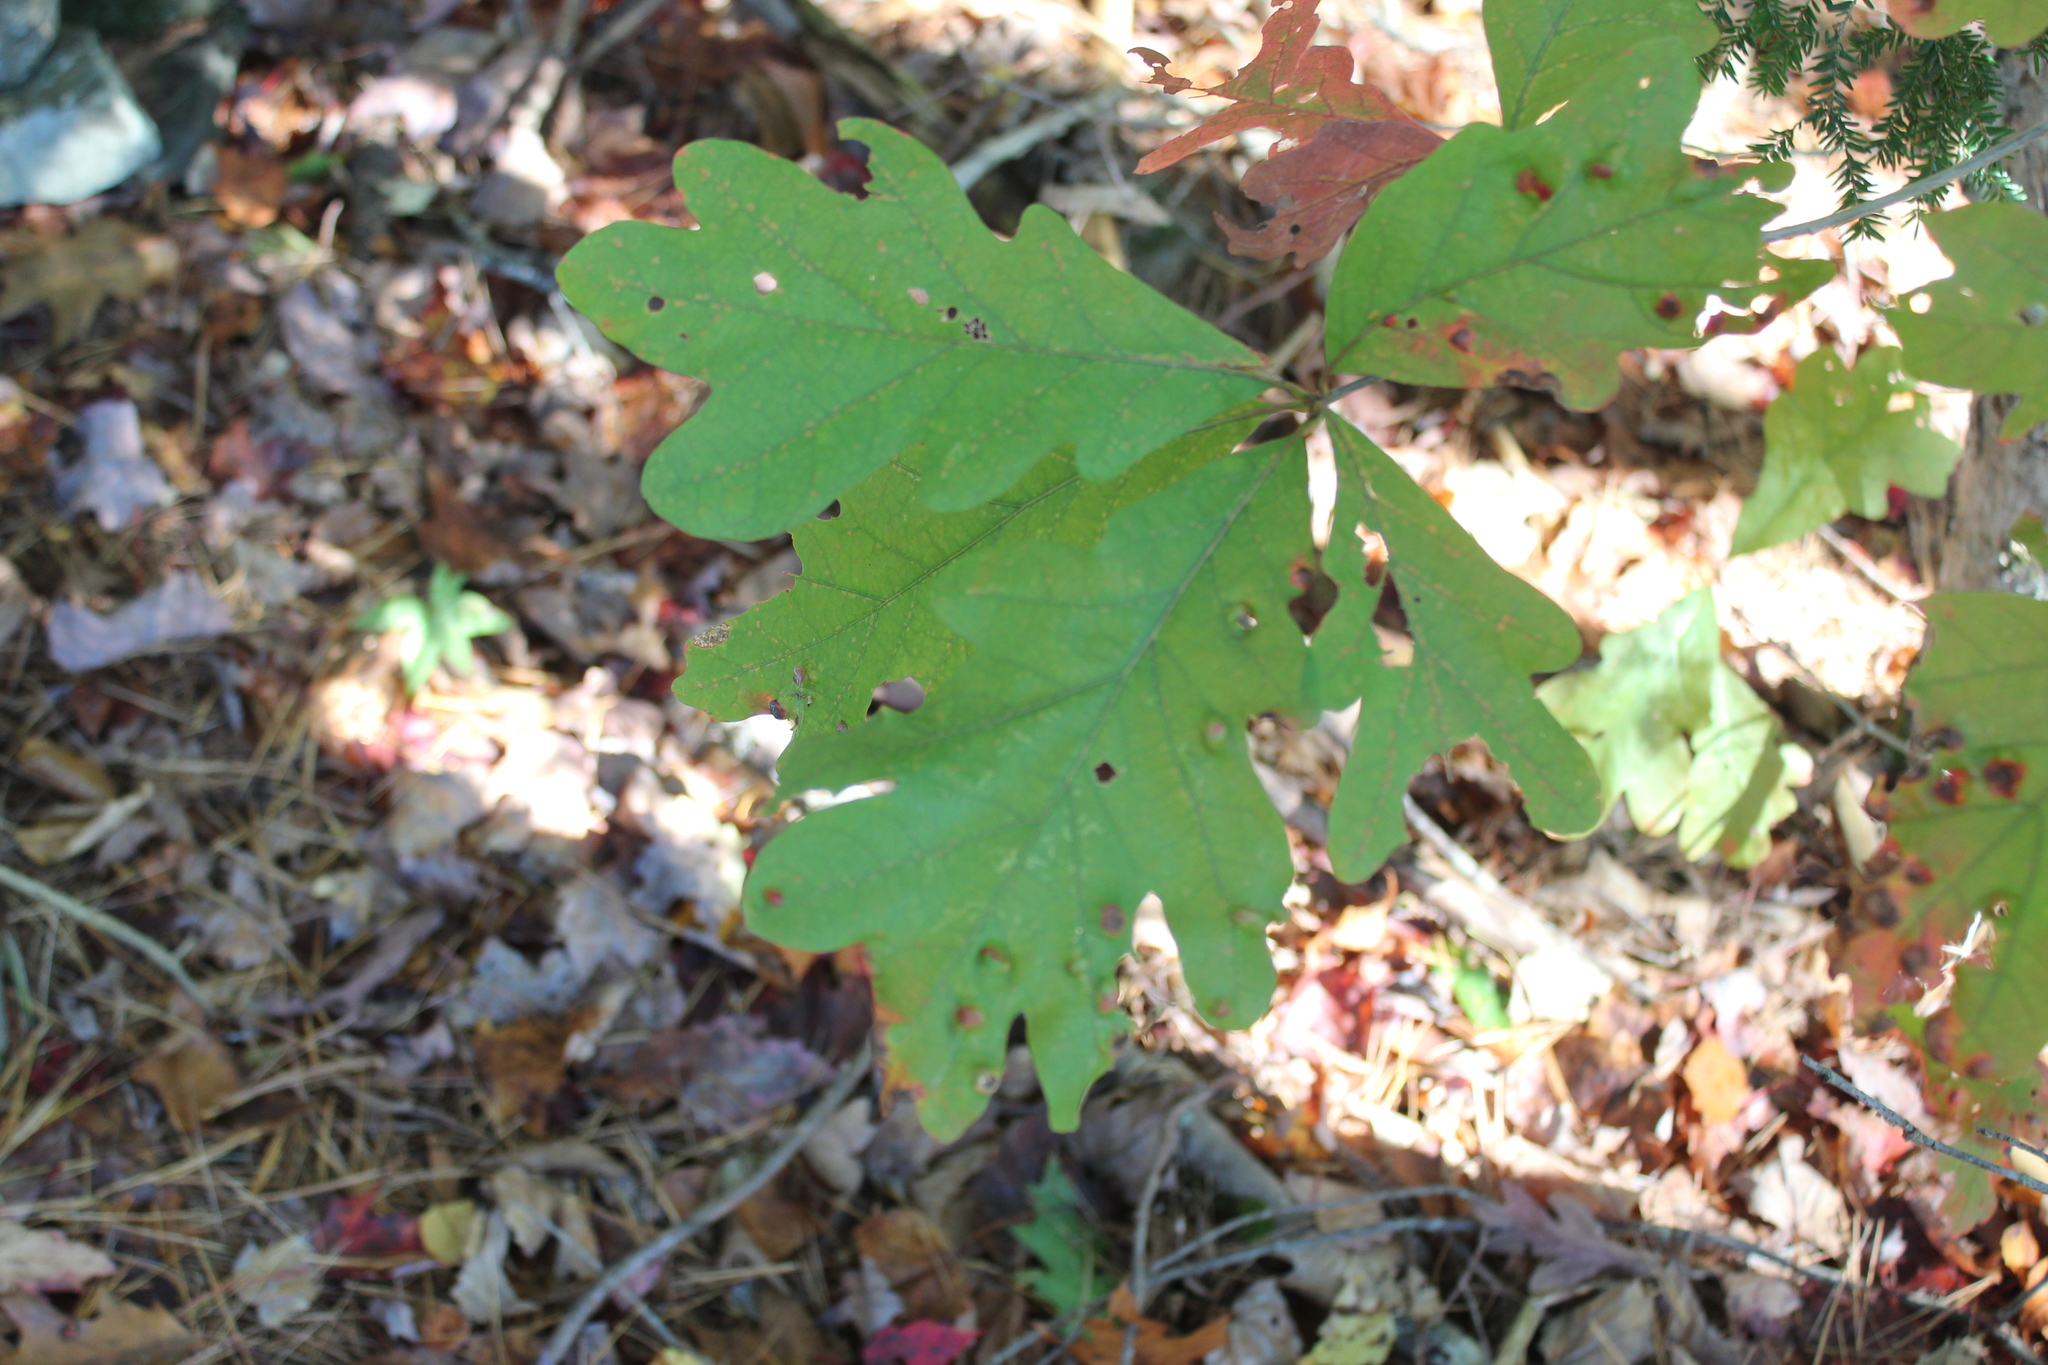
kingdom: Plantae
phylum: Tracheophyta
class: Magnoliopsida
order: Fagales
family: Fagaceae
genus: Quercus
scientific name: Quercus alba
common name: White oak
